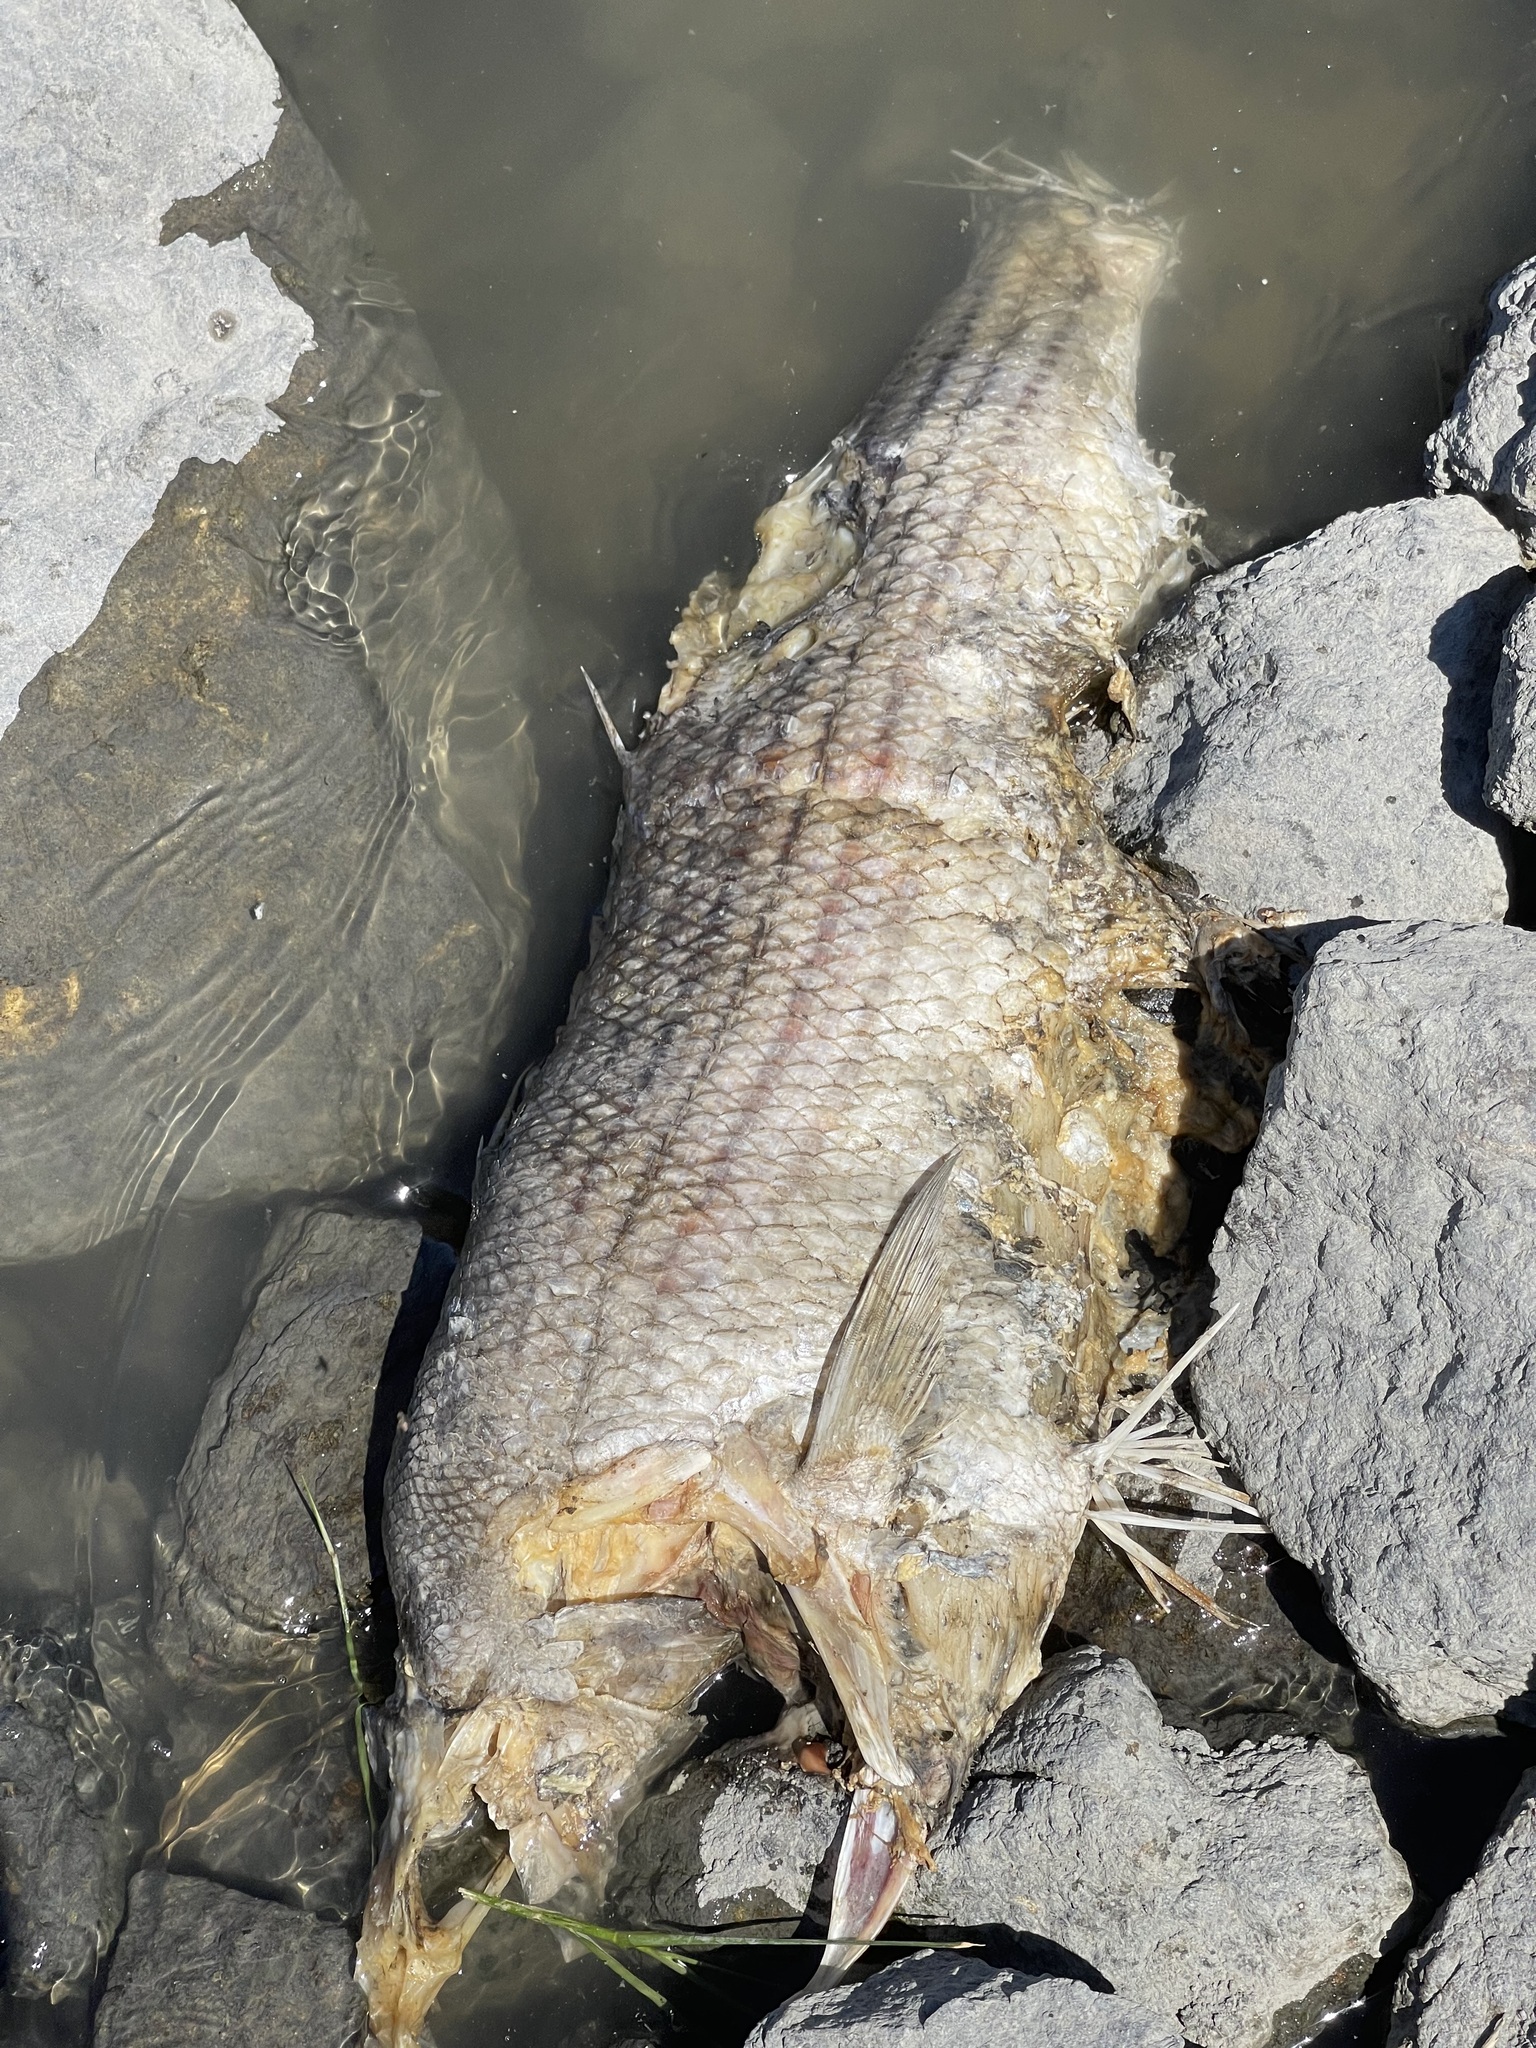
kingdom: Animalia
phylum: Chordata
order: Perciformes
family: Moronidae
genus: Morone
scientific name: Morone saxatilis
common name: Striped bass
